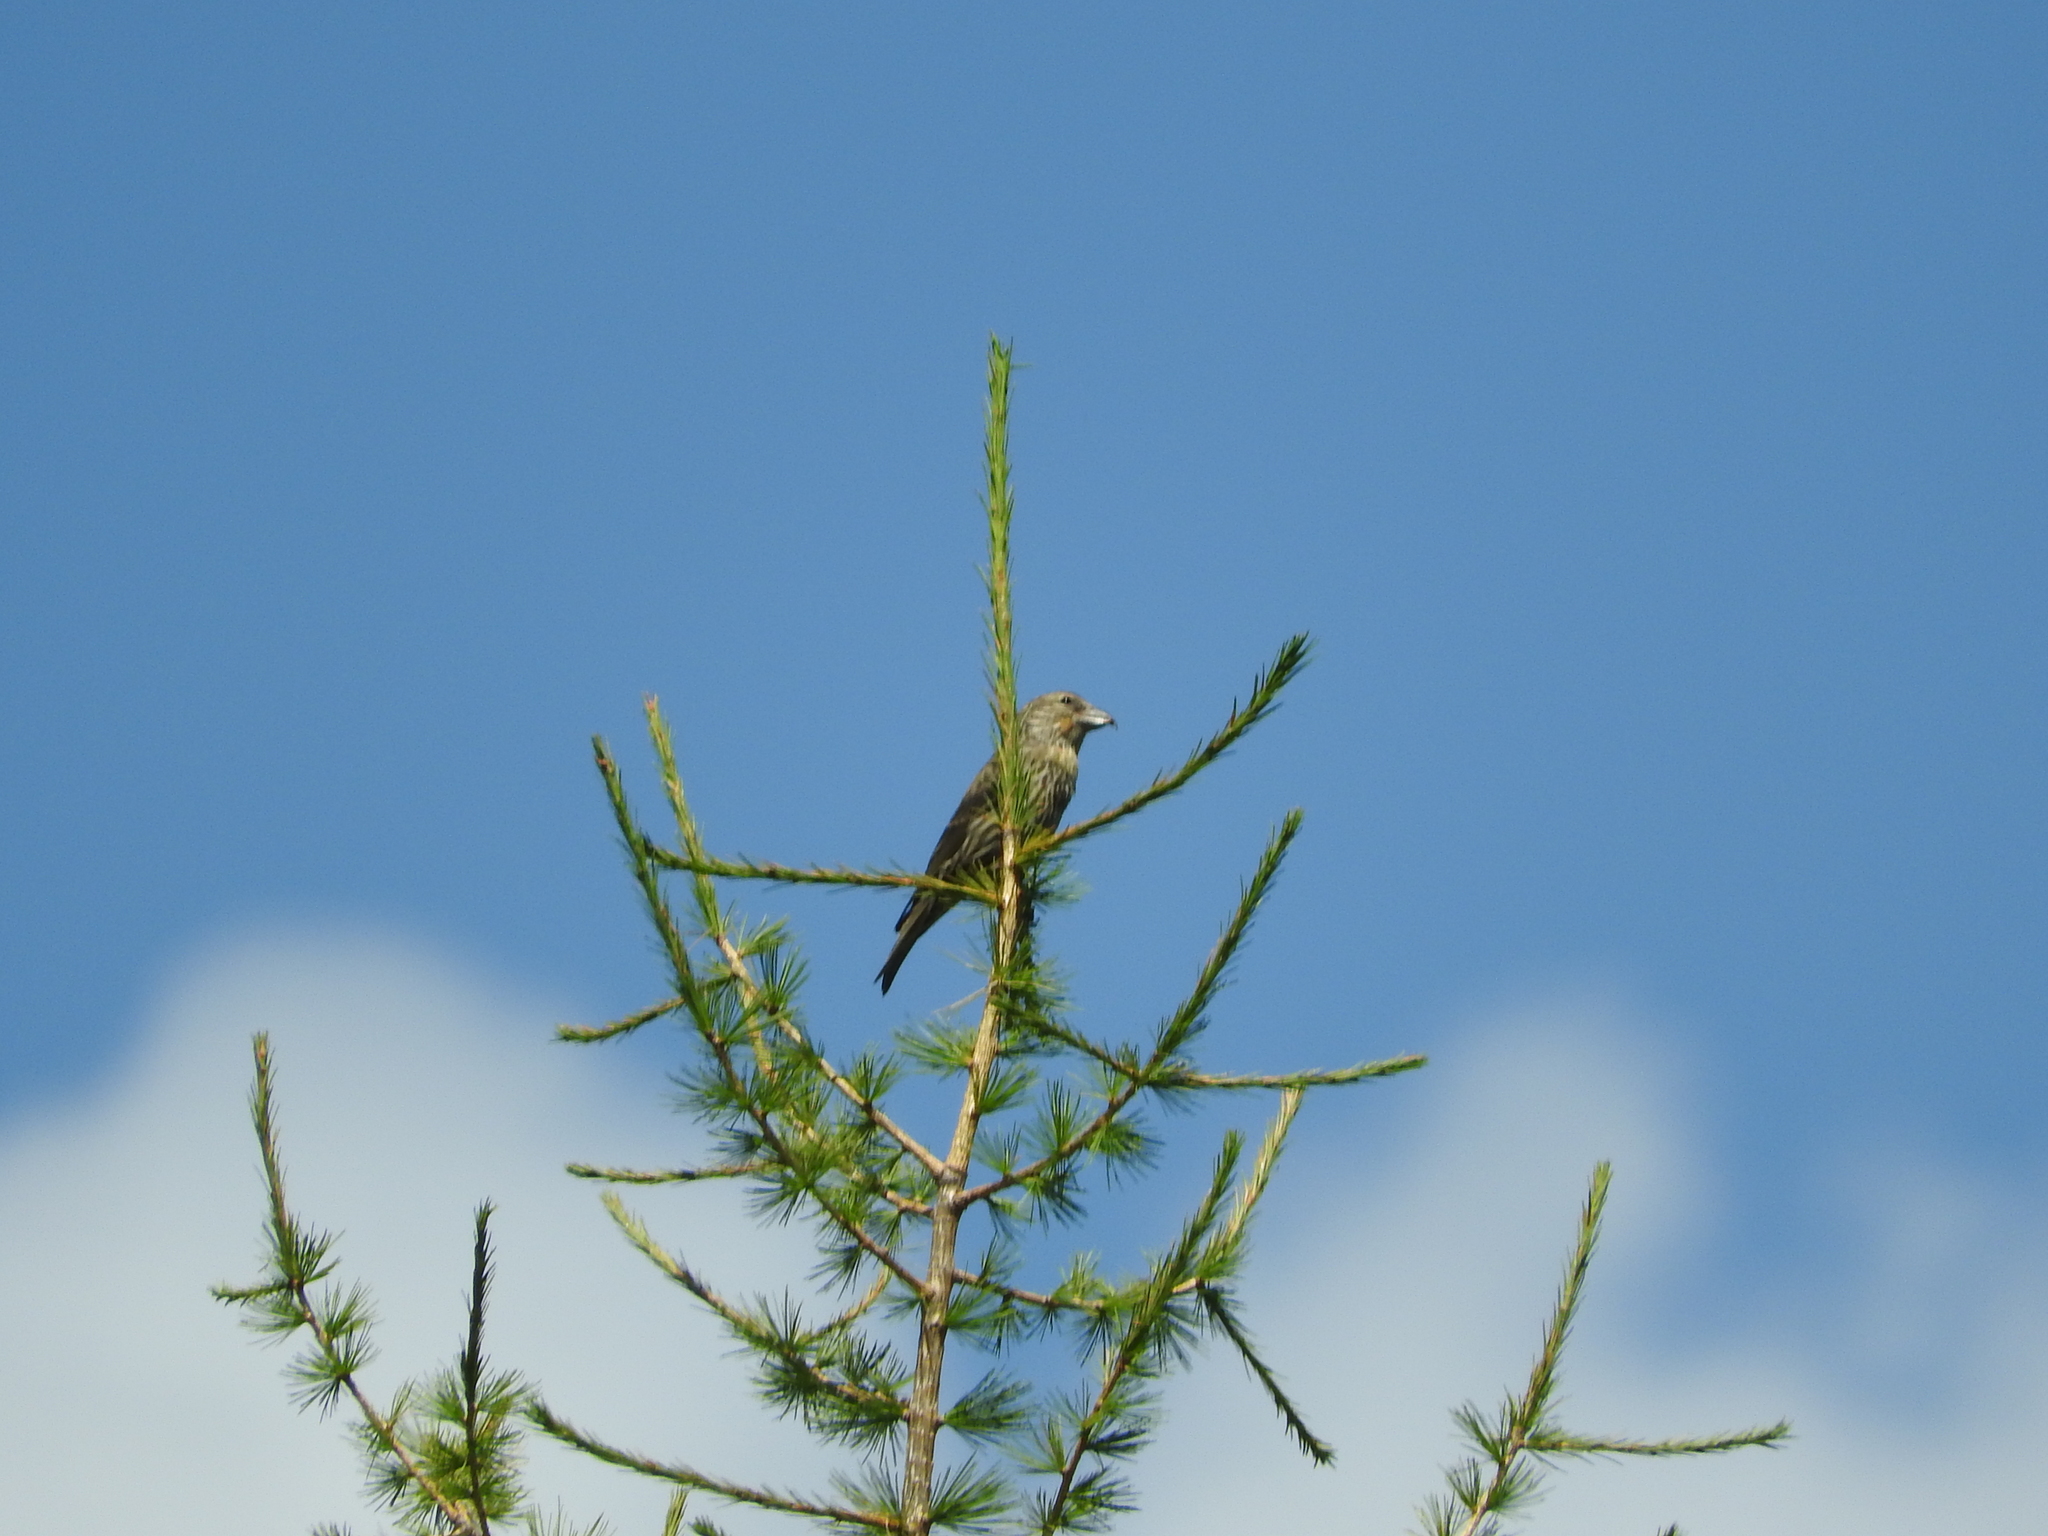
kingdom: Animalia
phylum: Chordata
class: Aves
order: Passeriformes
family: Fringillidae
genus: Loxia
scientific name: Loxia curvirostra
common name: Red crossbill
